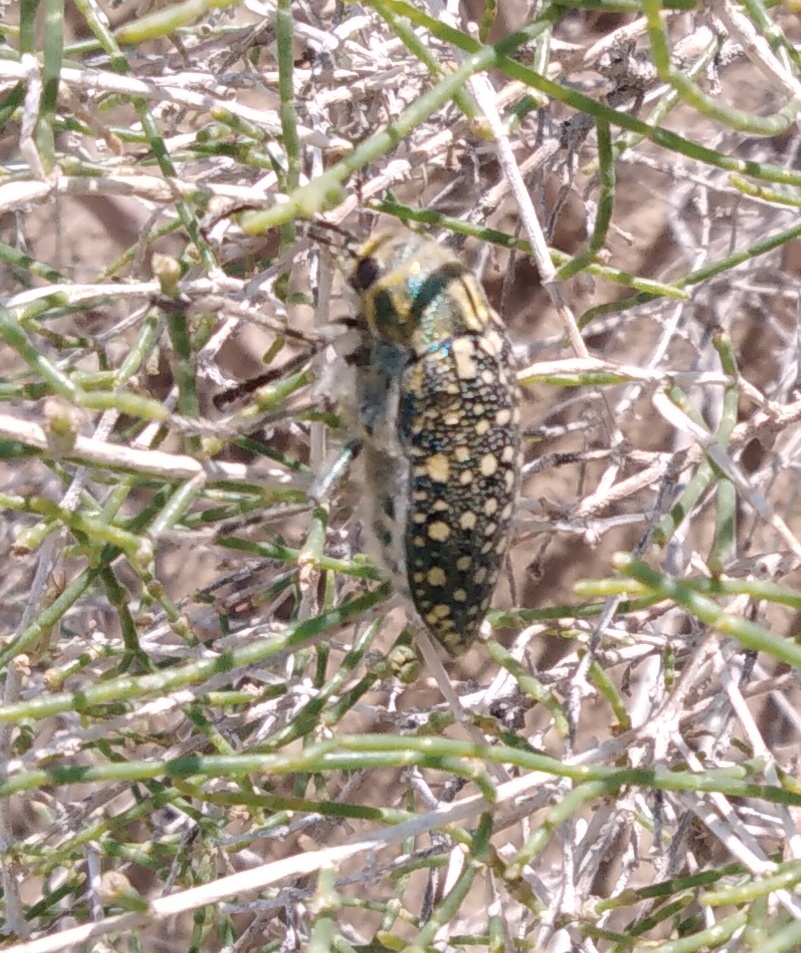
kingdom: Animalia
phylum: Arthropoda
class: Insecta
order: Coleoptera
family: Buprestidae
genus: Julodis
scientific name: Julodis variolaris
